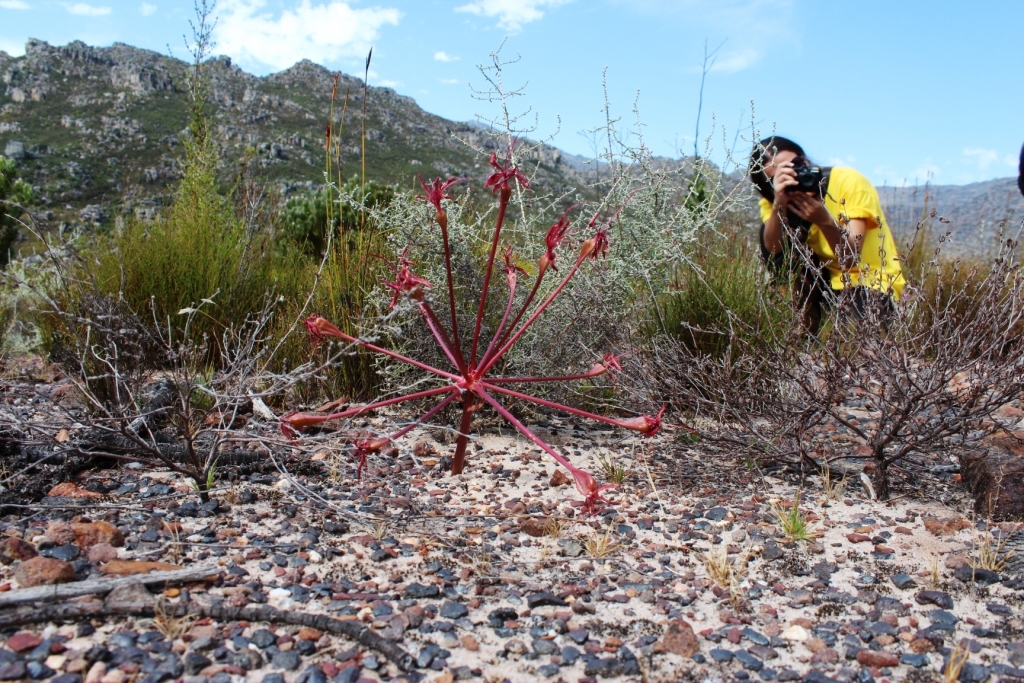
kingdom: Plantae
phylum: Tracheophyta
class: Liliopsida
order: Asparagales
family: Amaryllidaceae
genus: Brunsvigia
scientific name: Brunsvigia marginata
